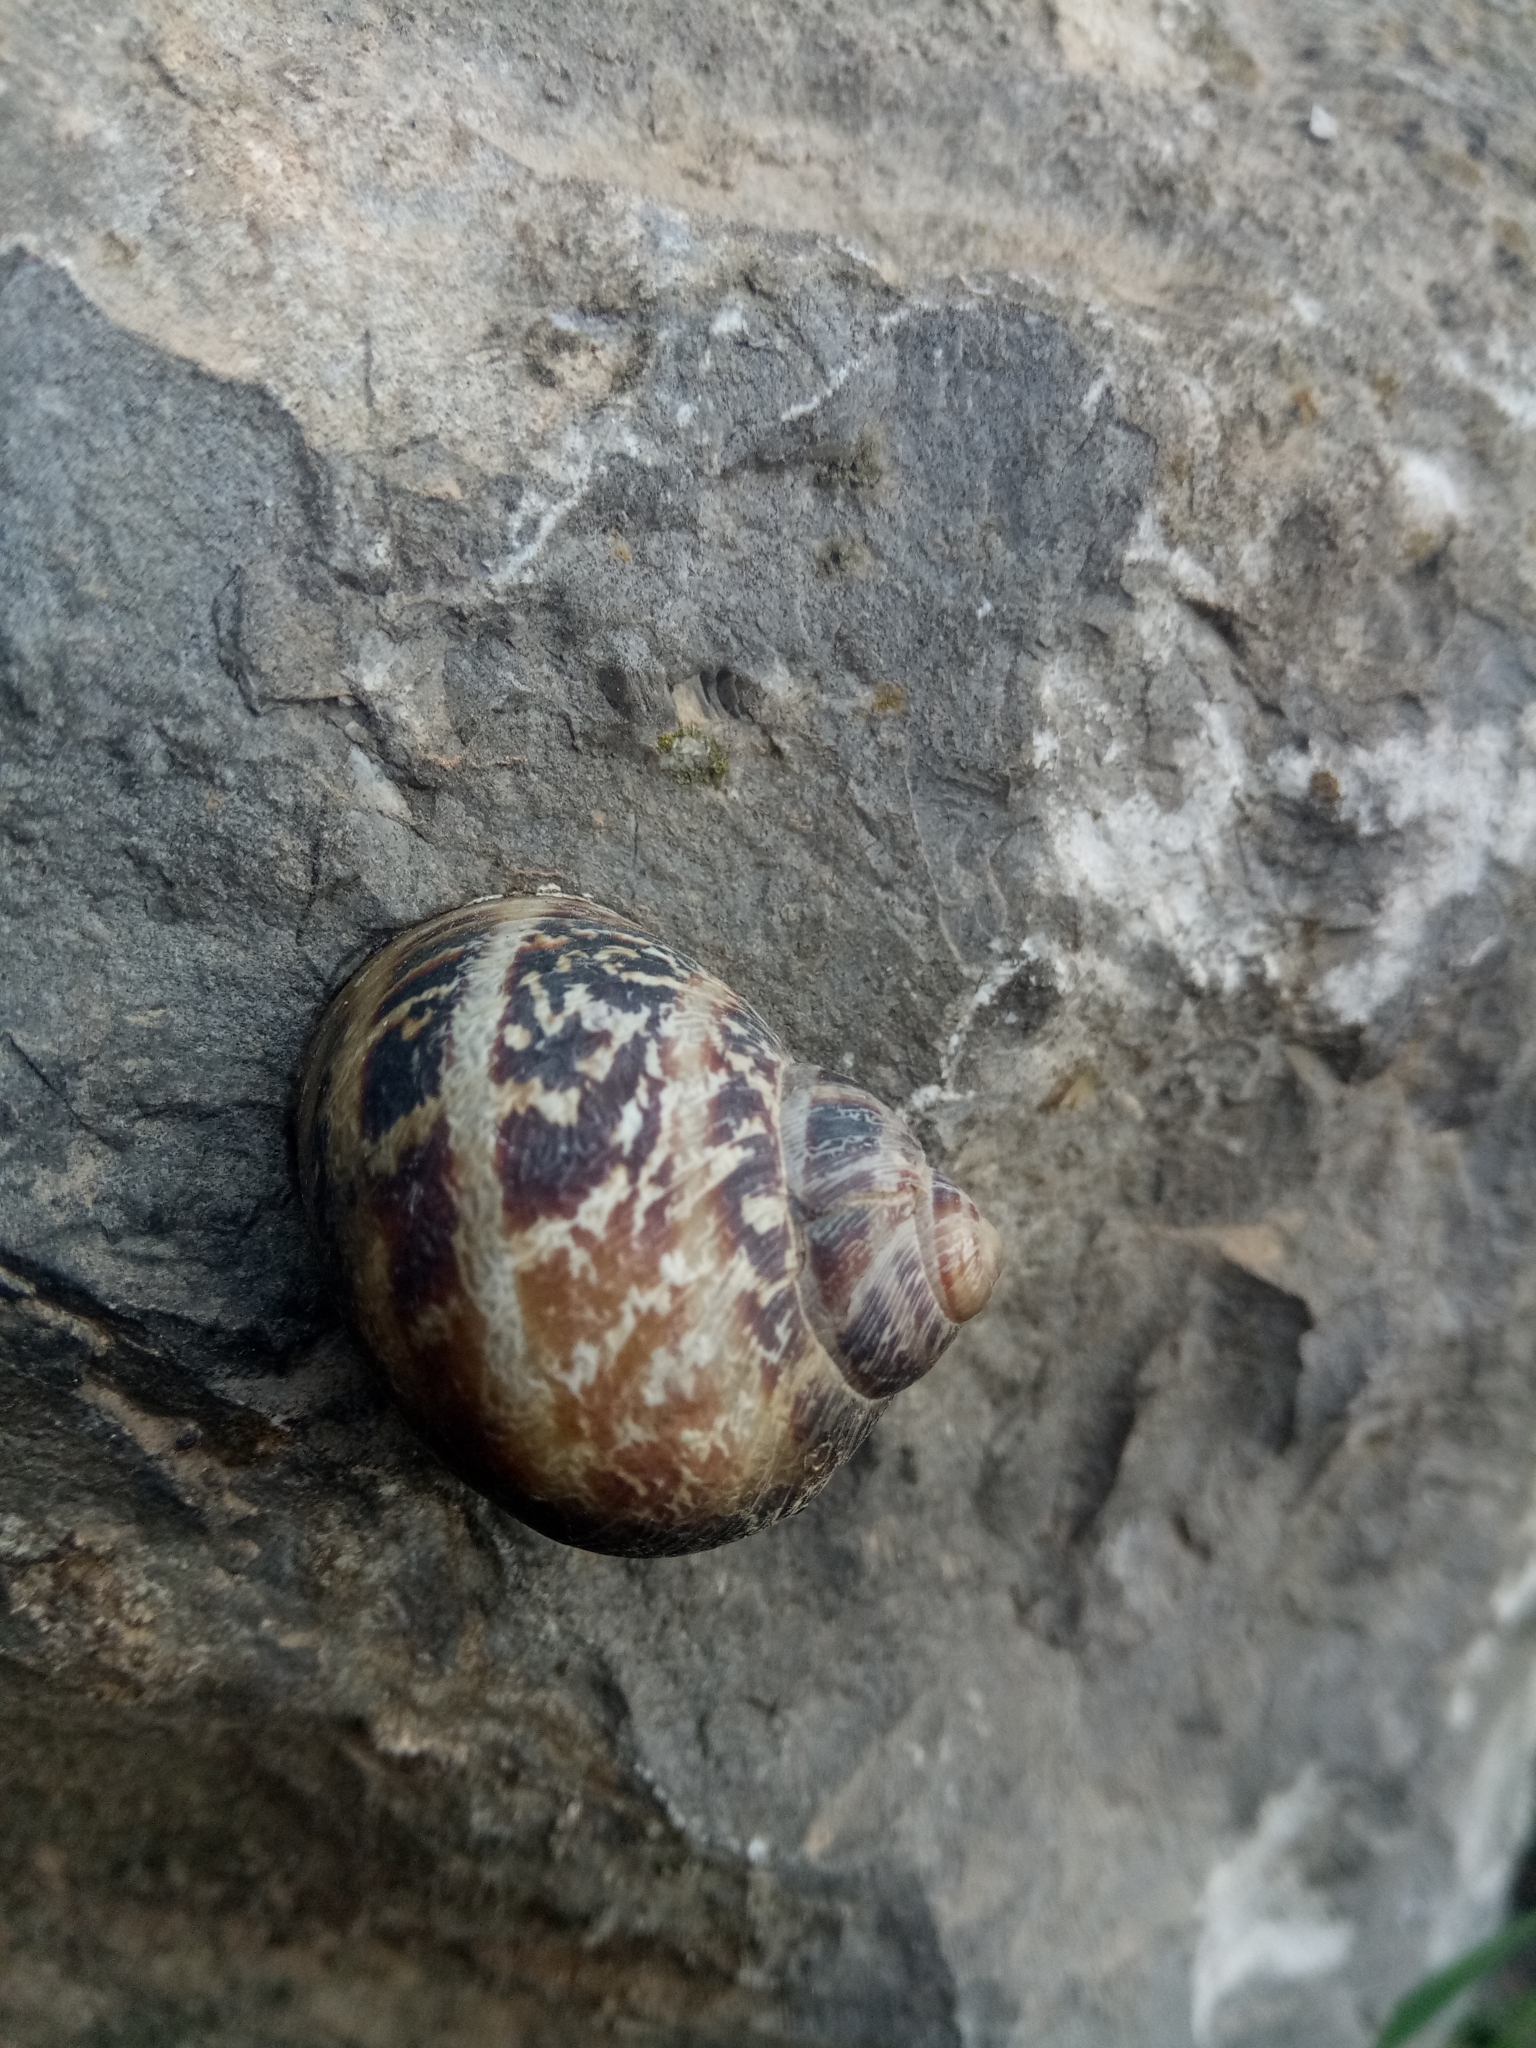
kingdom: Animalia
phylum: Mollusca
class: Gastropoda
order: Stylommatophora
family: Helicidae
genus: Cornu
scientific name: Cornu aspersum
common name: Brown garden snail
